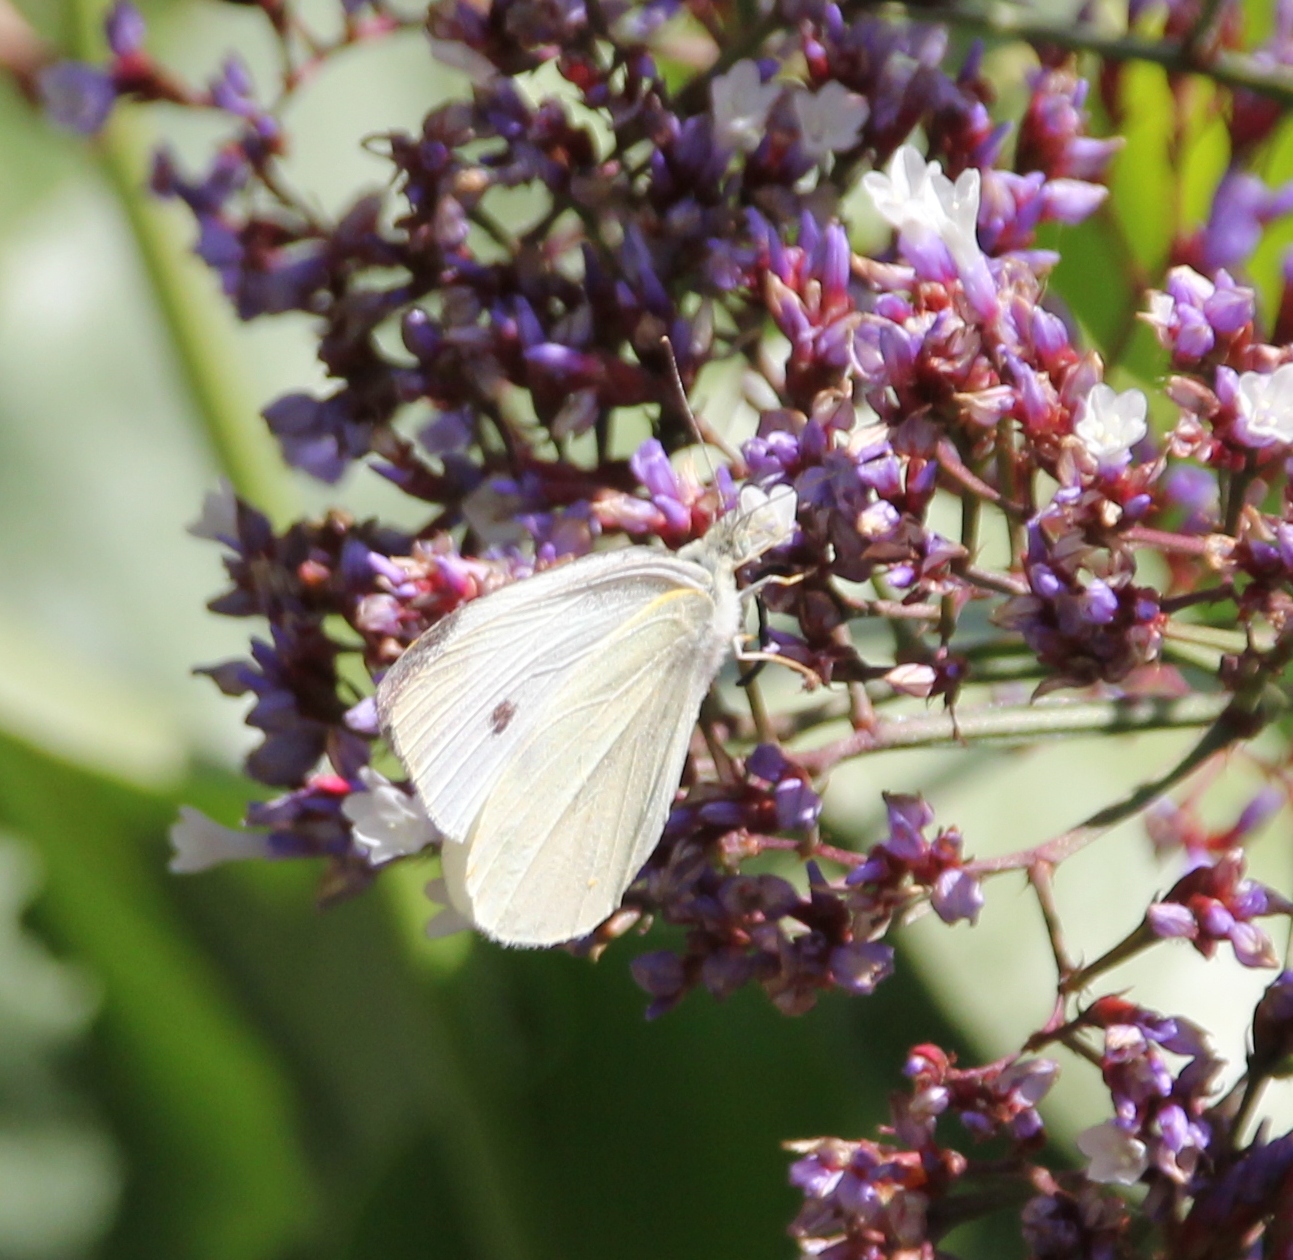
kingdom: Animalia
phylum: Arthropoda
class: Insecta
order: Lepidoptera
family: Pieridae
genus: Pieris
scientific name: Pieris rapae
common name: Small white
